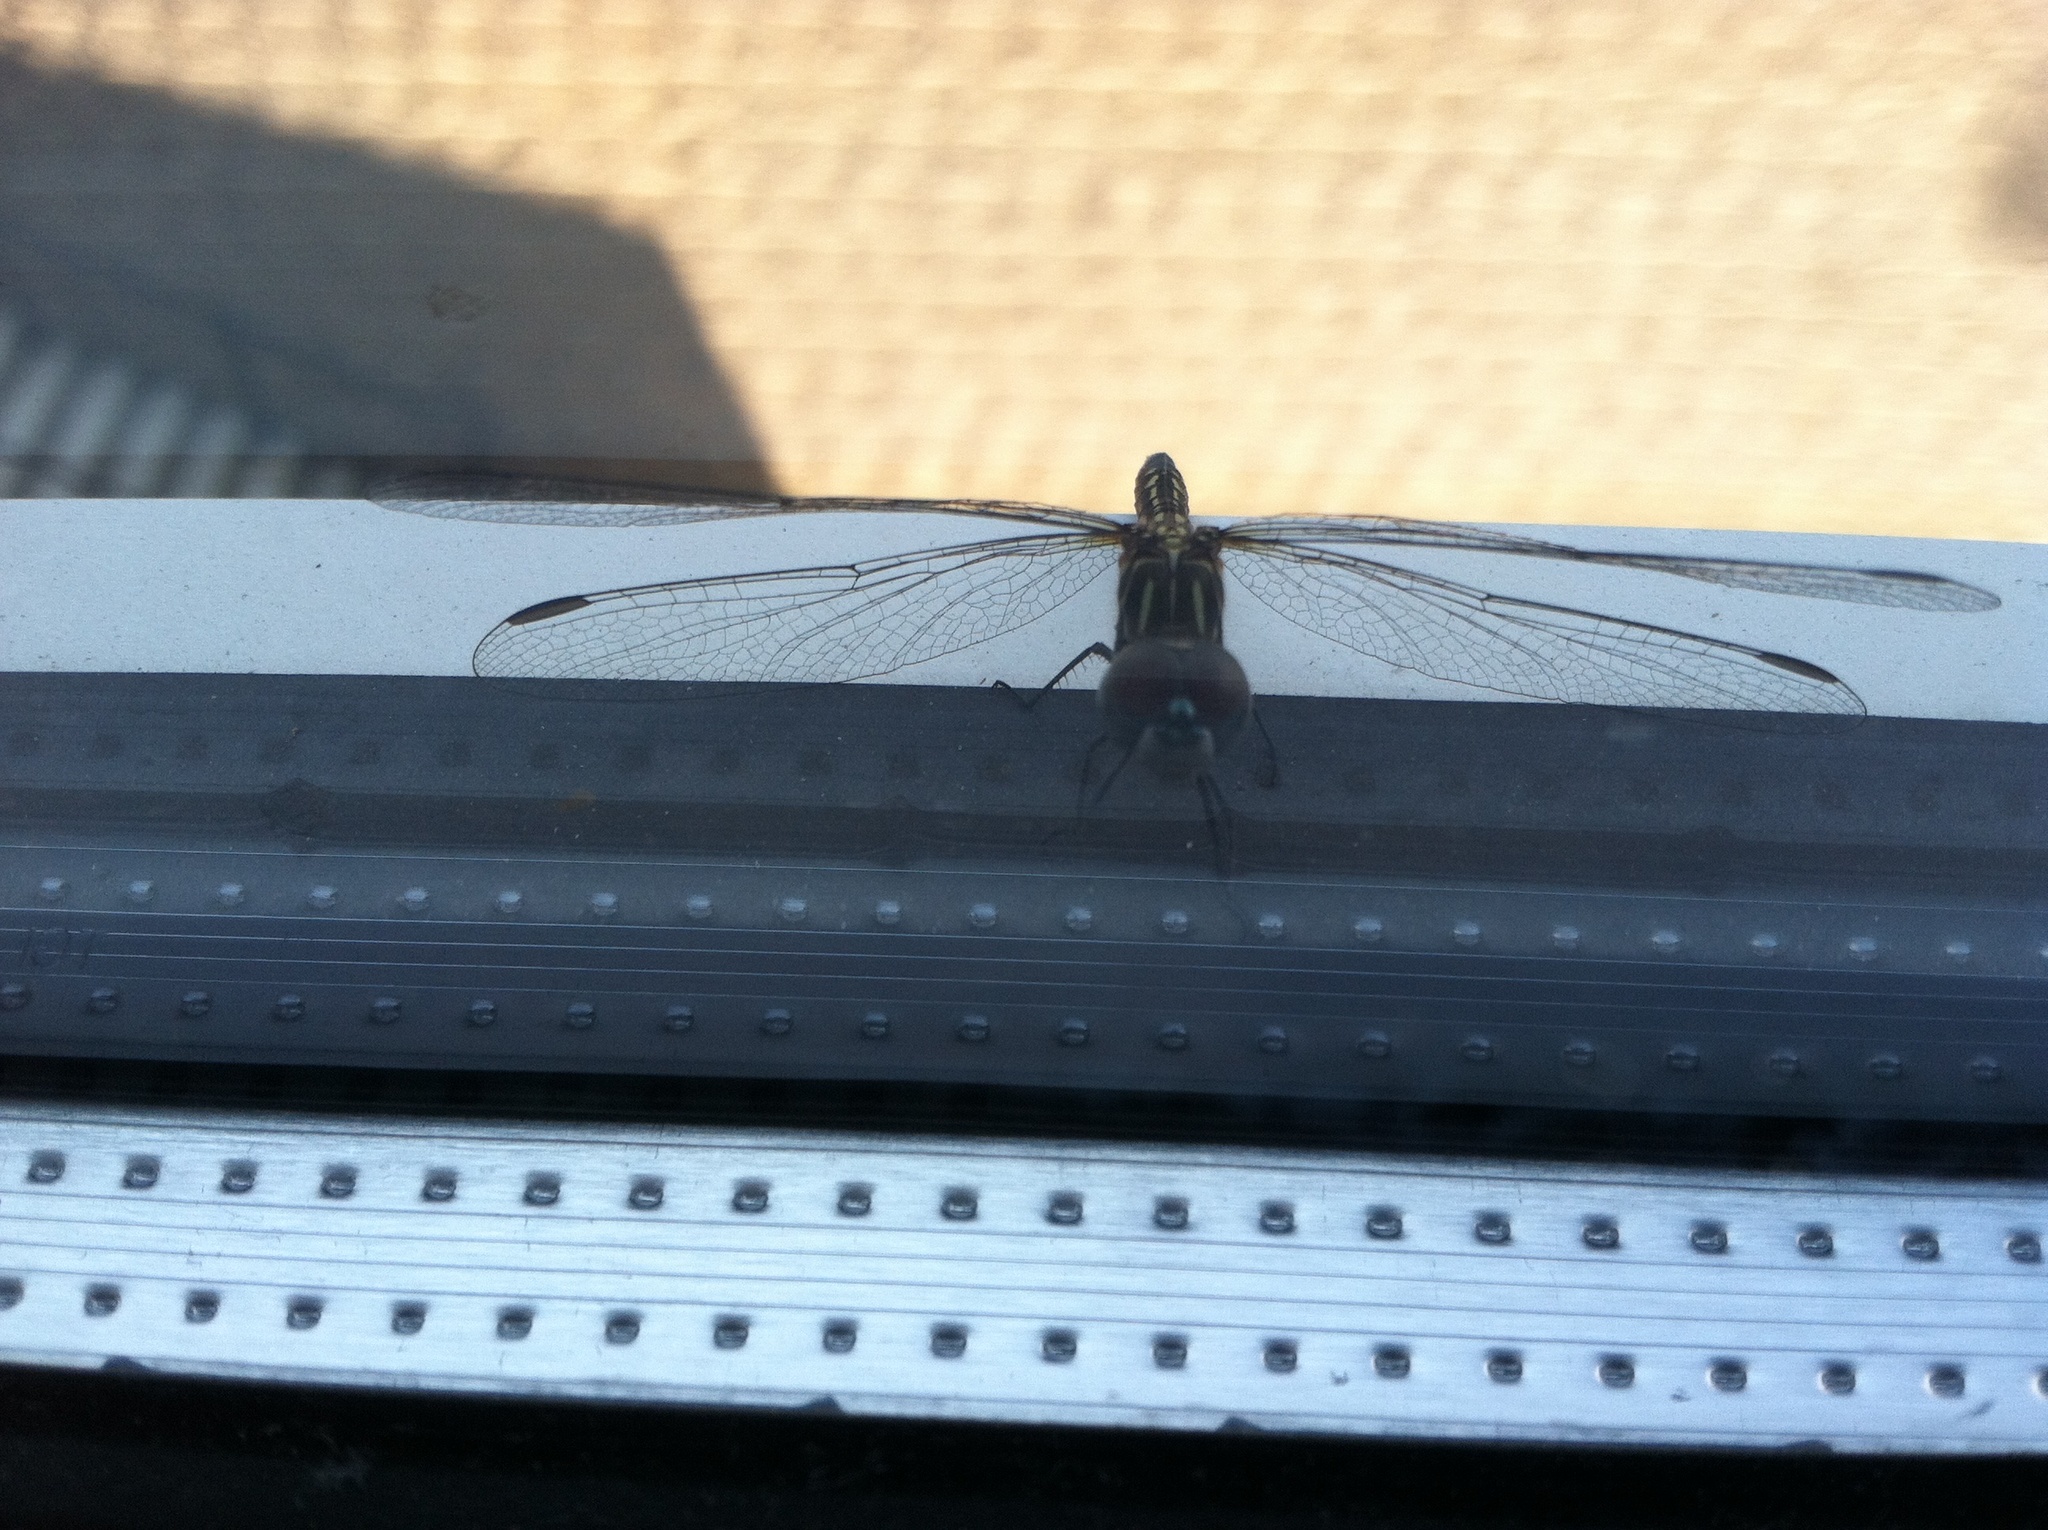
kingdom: Animalia
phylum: Arthropoda
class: Insecta
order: Odonata
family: Libellulidae
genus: Pachydiplax
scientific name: Pachydiplax longipennis
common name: Blue dasher
